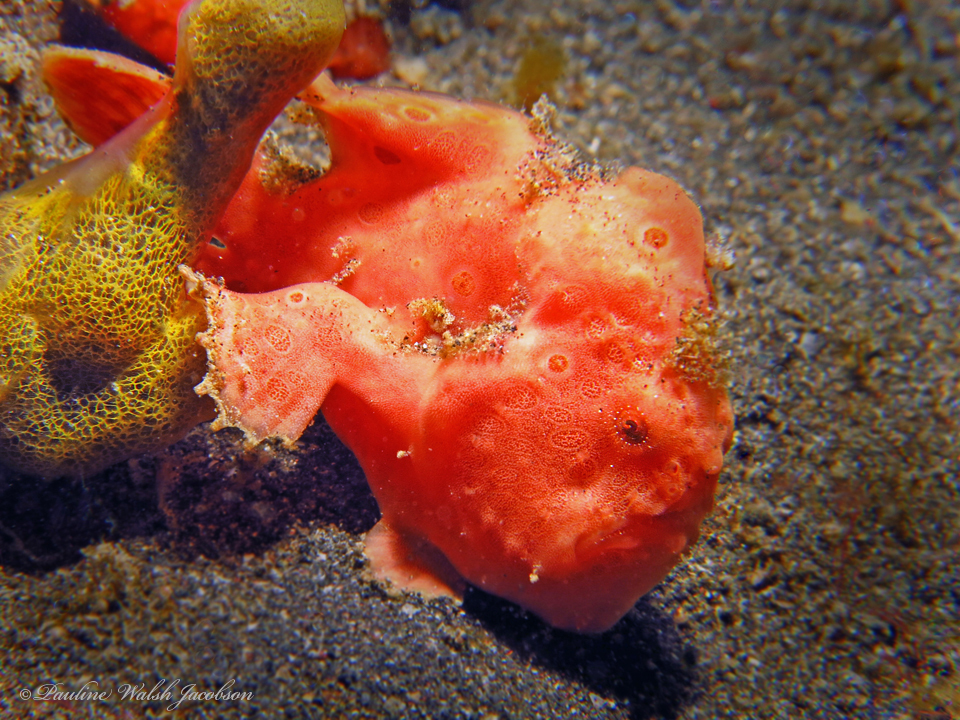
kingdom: Animalia
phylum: Chordata
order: Lophiiformes
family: Antennariidae
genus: Antennarius
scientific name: Antennarius pictus
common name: Painted frogfish
